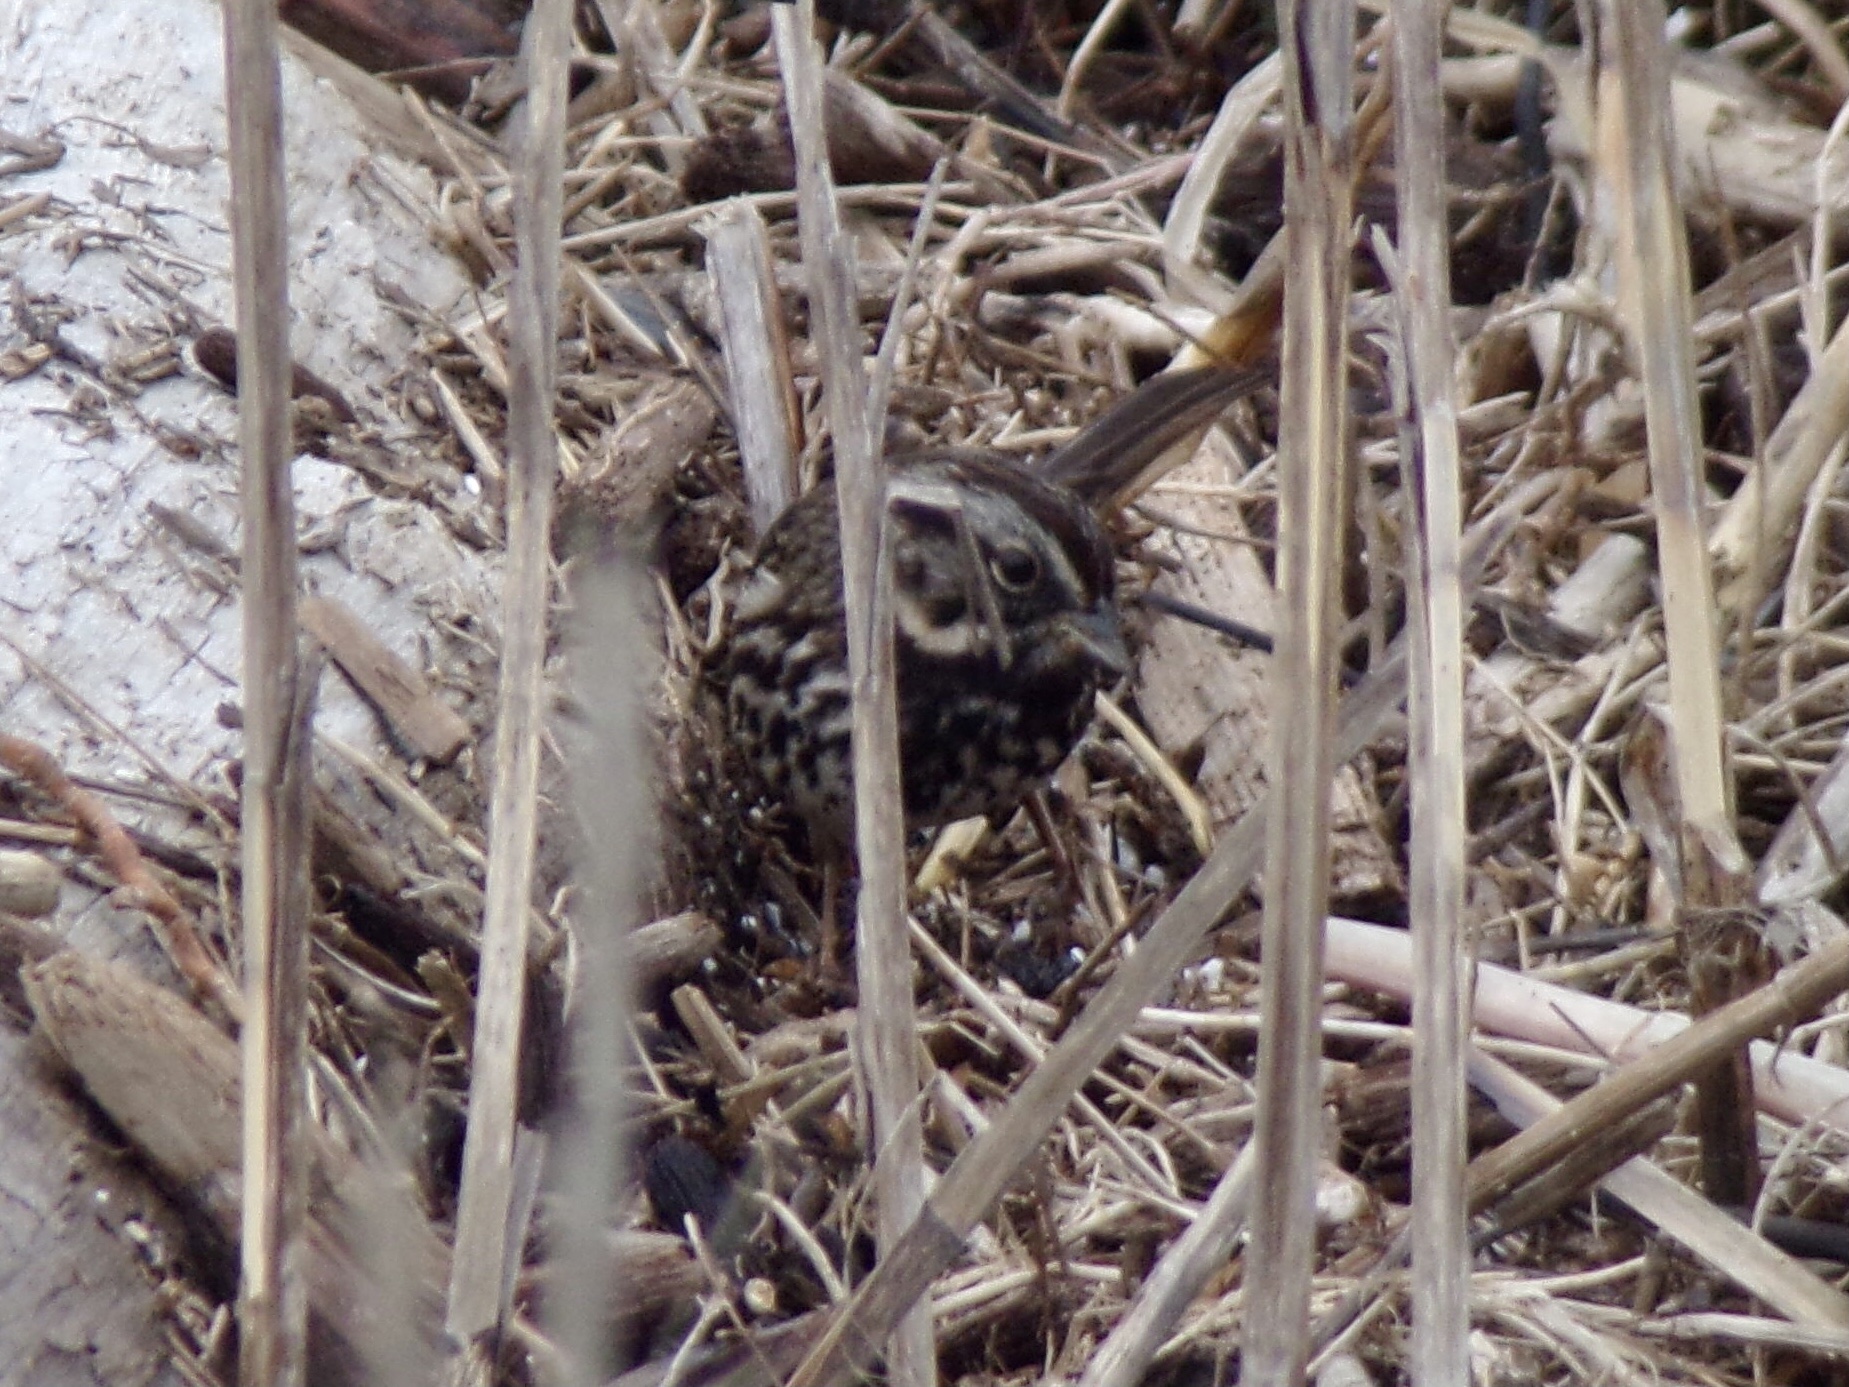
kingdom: Animalia
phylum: Chordata
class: Aves
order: Passeriformes
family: Passerellidae
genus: Melospiza
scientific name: Melospiza melodia
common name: Song sparrow
